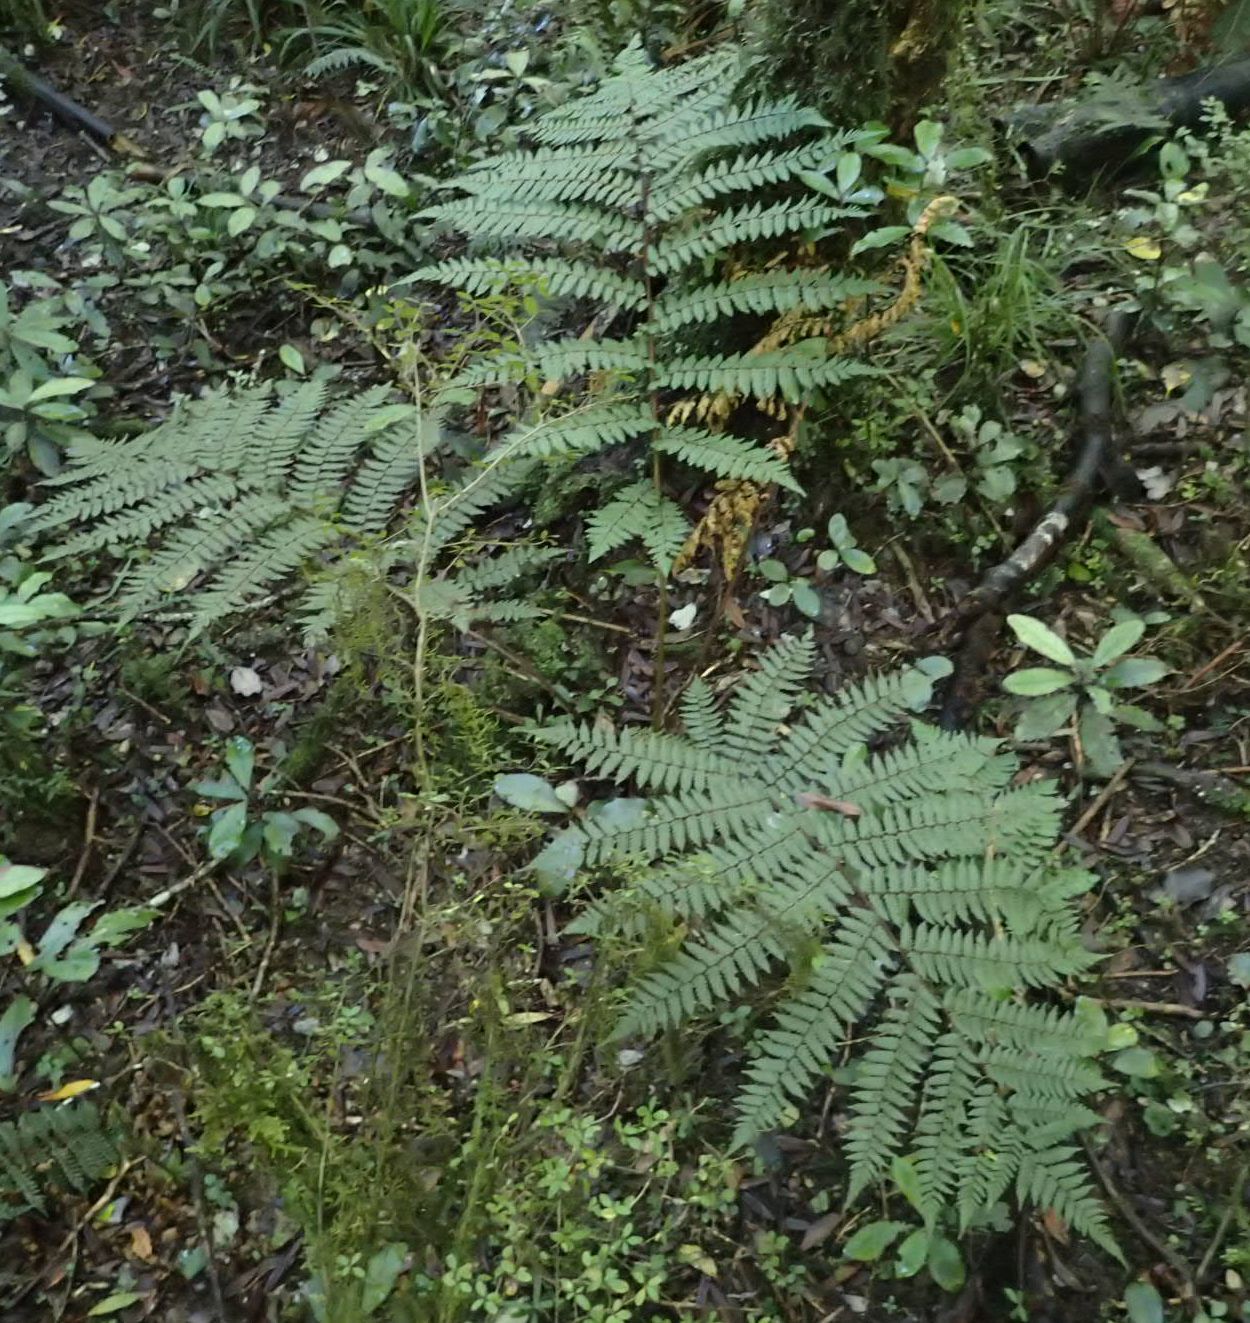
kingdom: Plantae
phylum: Tracheophyta
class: Polypodiopsida
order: Cyatheales
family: Cyatheaceae
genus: Alsophila
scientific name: Alsophila colensoi
